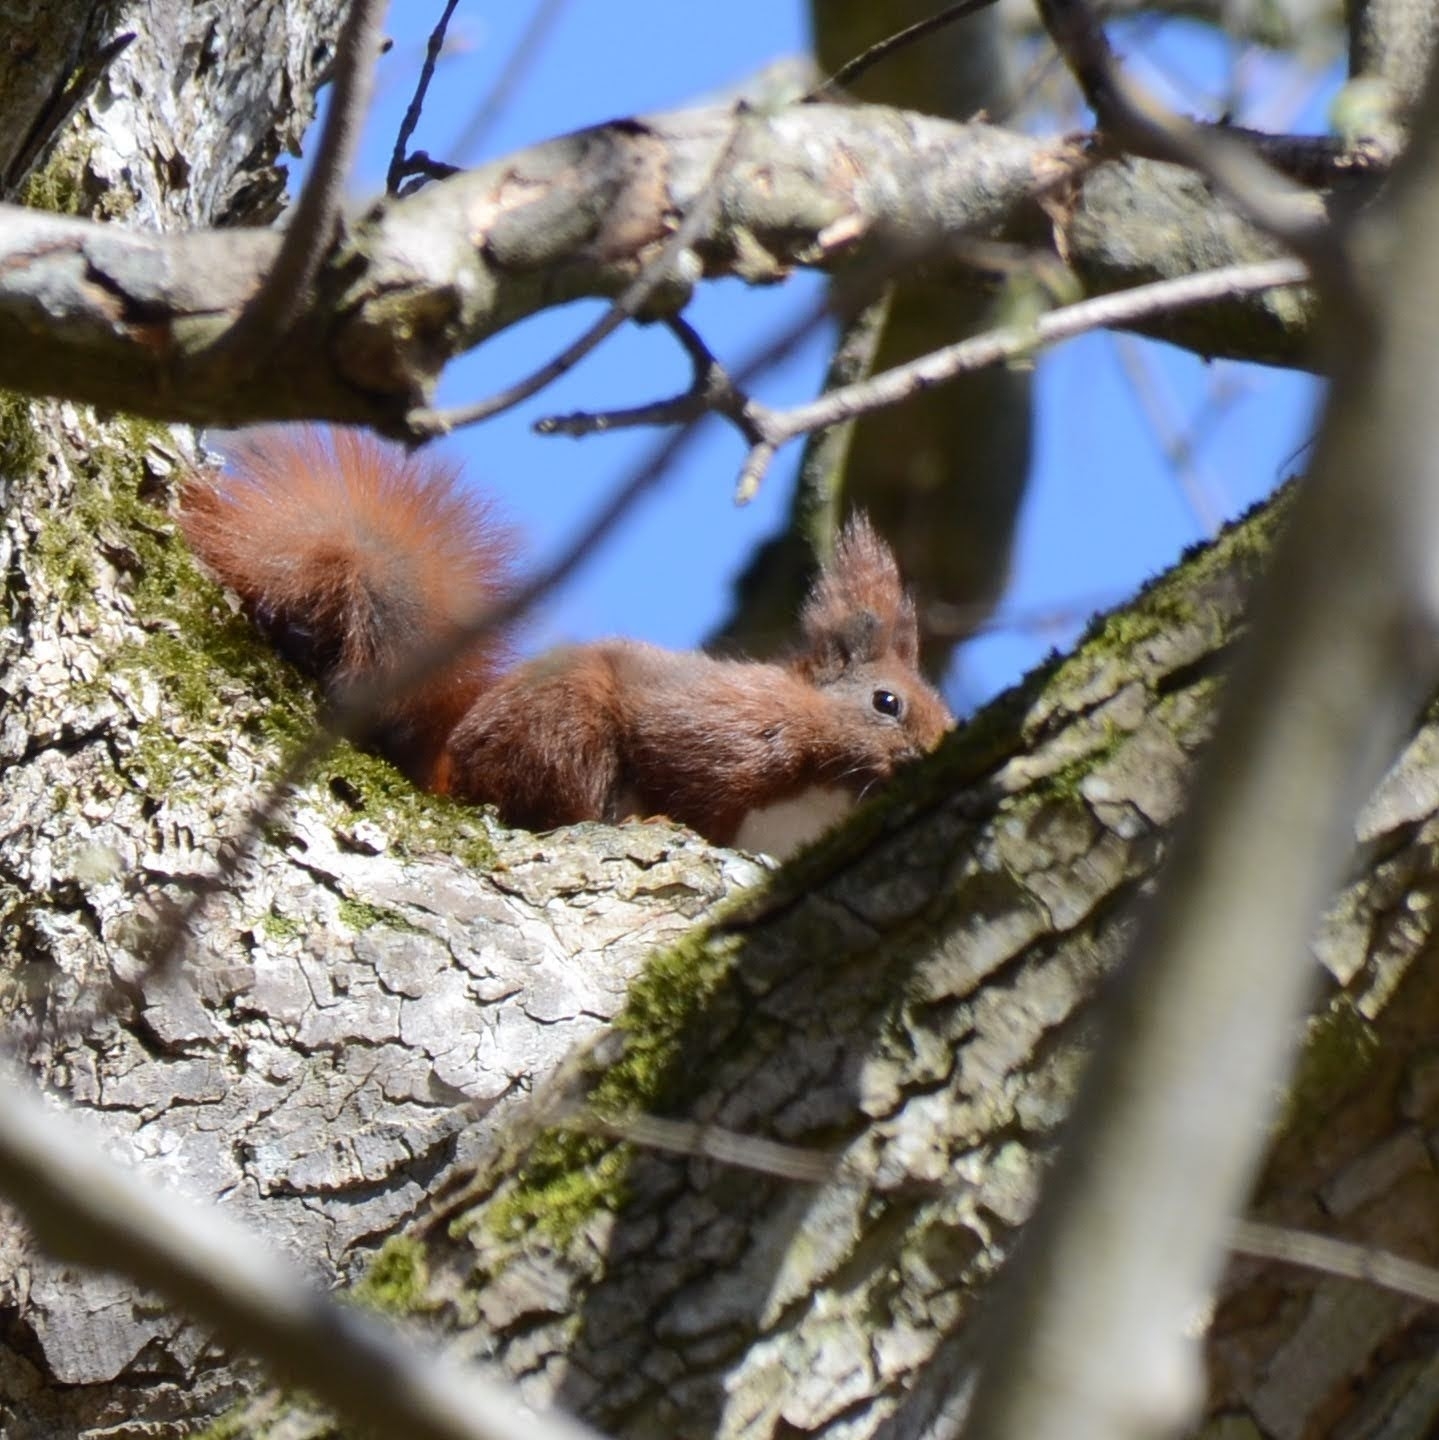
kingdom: Animalia
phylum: Chordata
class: Mammalia
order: Rodentia
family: Sciuridae
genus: Sciurus
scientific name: Sciurus vulgaris
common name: Eurasian red squirrel
